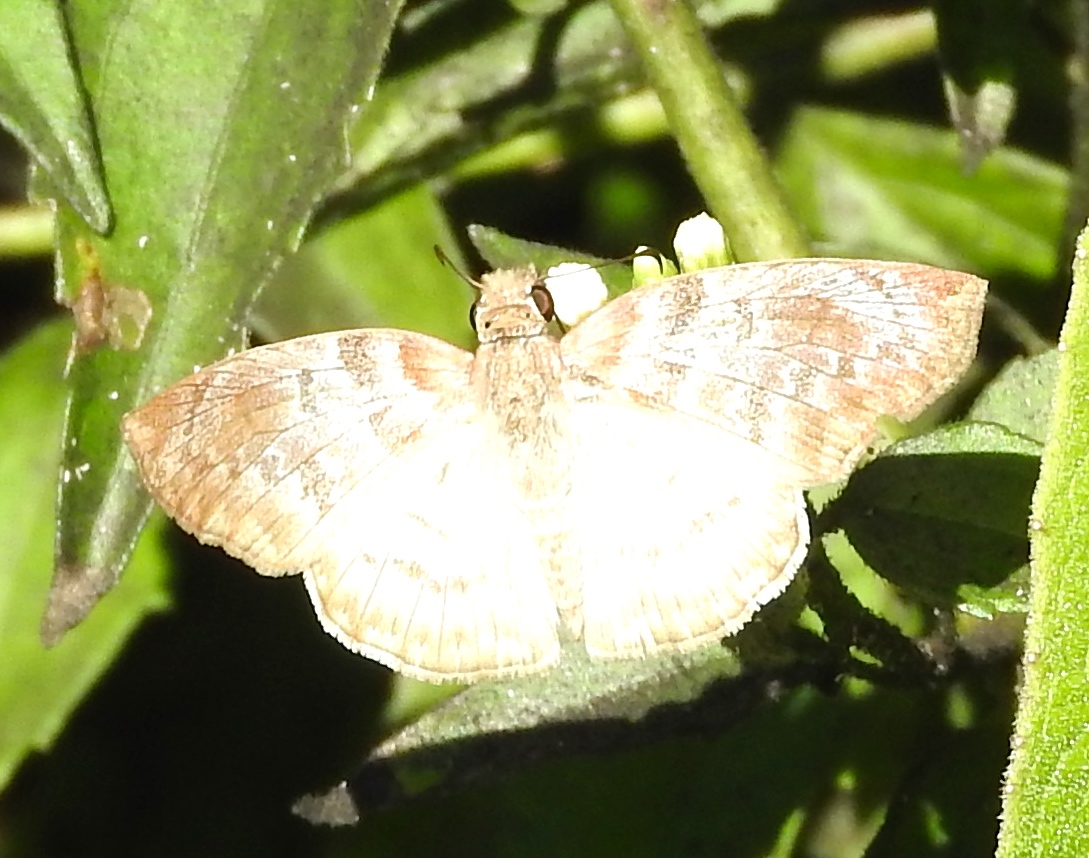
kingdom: Animalia
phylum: Arthropoda
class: Insecta
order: Lepidoptera
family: Hesperiidae
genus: Mylon
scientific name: Mylon pelopidas
